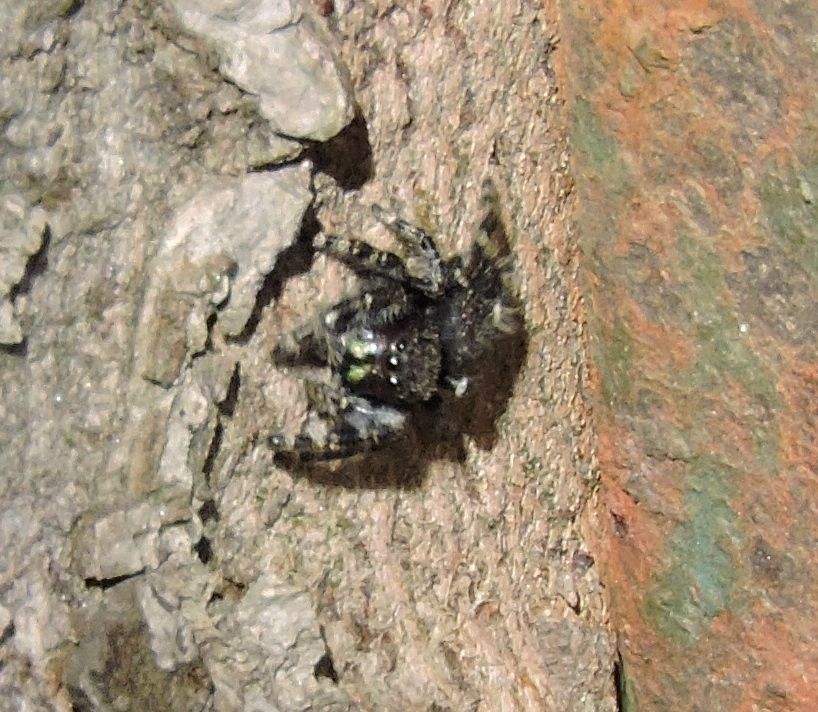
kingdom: Animalia
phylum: Arthropoda
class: Arachnida
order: Araneae
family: Salticidae
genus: Phidippus
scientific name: Phidippus audax
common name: Bold jumper
